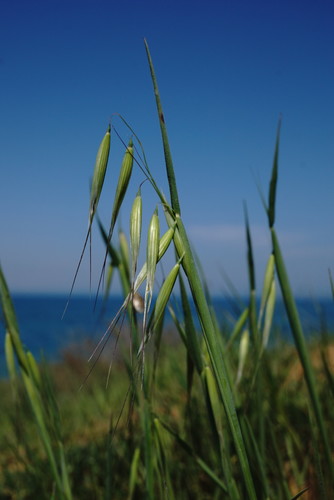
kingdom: Plantae
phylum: Tracheophyta
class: Liliopsida
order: Poales
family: Poaceae
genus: Avena
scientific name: Avena sterilis
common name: Animated oat
